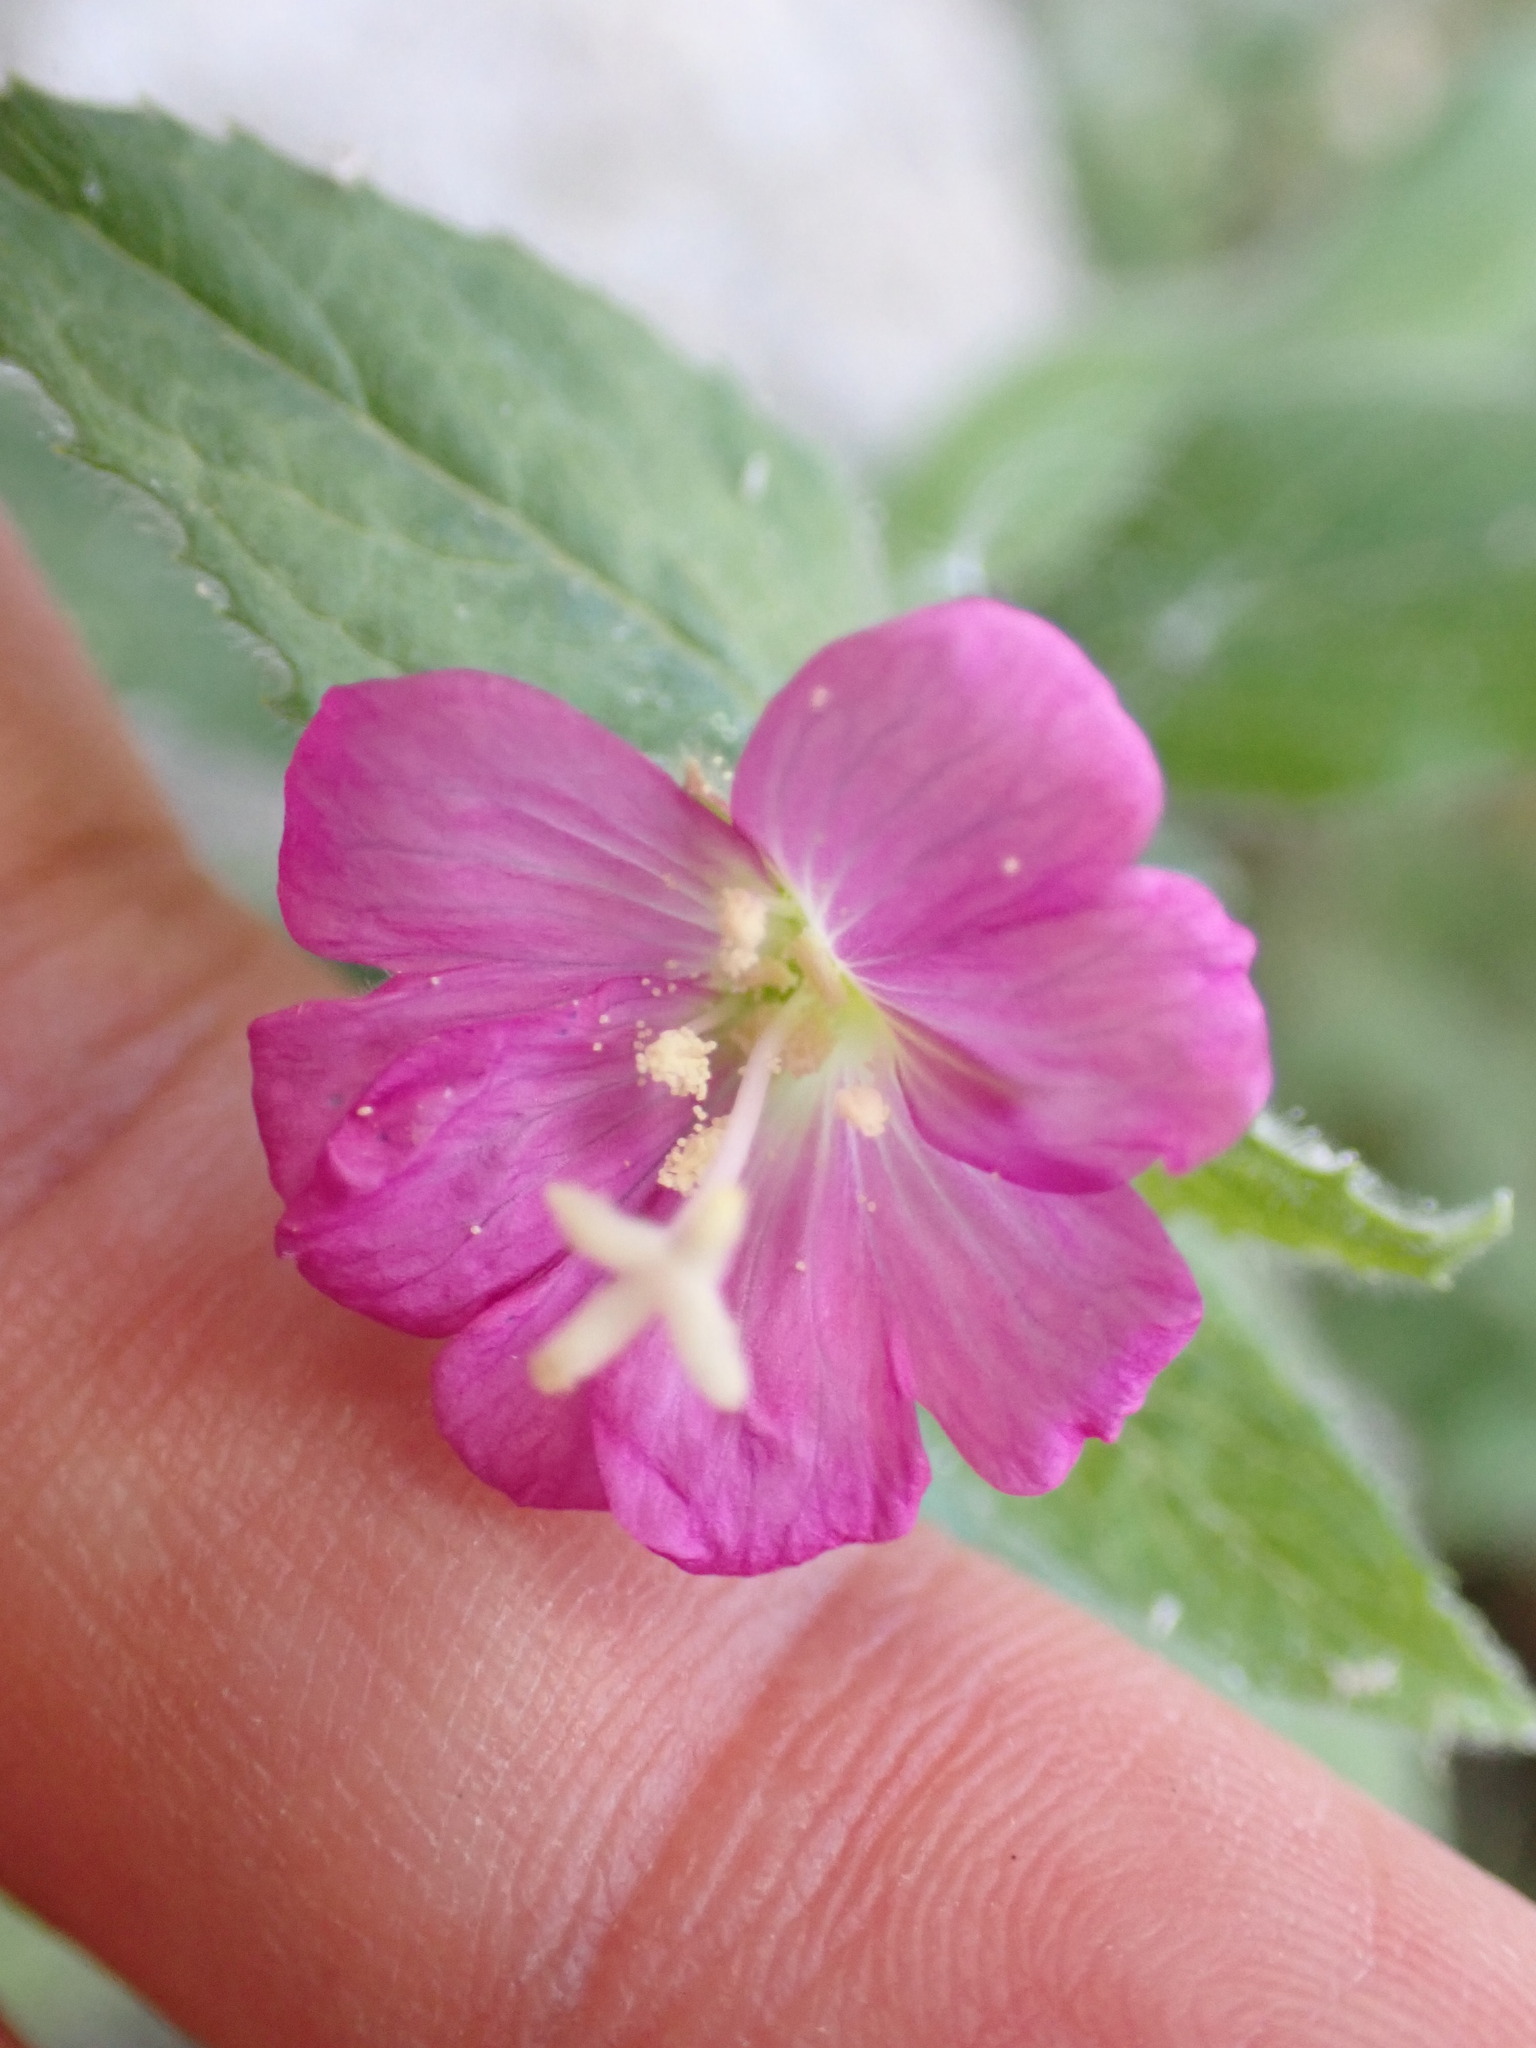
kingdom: Plantae
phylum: Tracheophyta
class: Magnoliopsida
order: Myrtales
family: Onagraceae
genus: Epilobium
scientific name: Epilobium hirsutum
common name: Great willowherb
